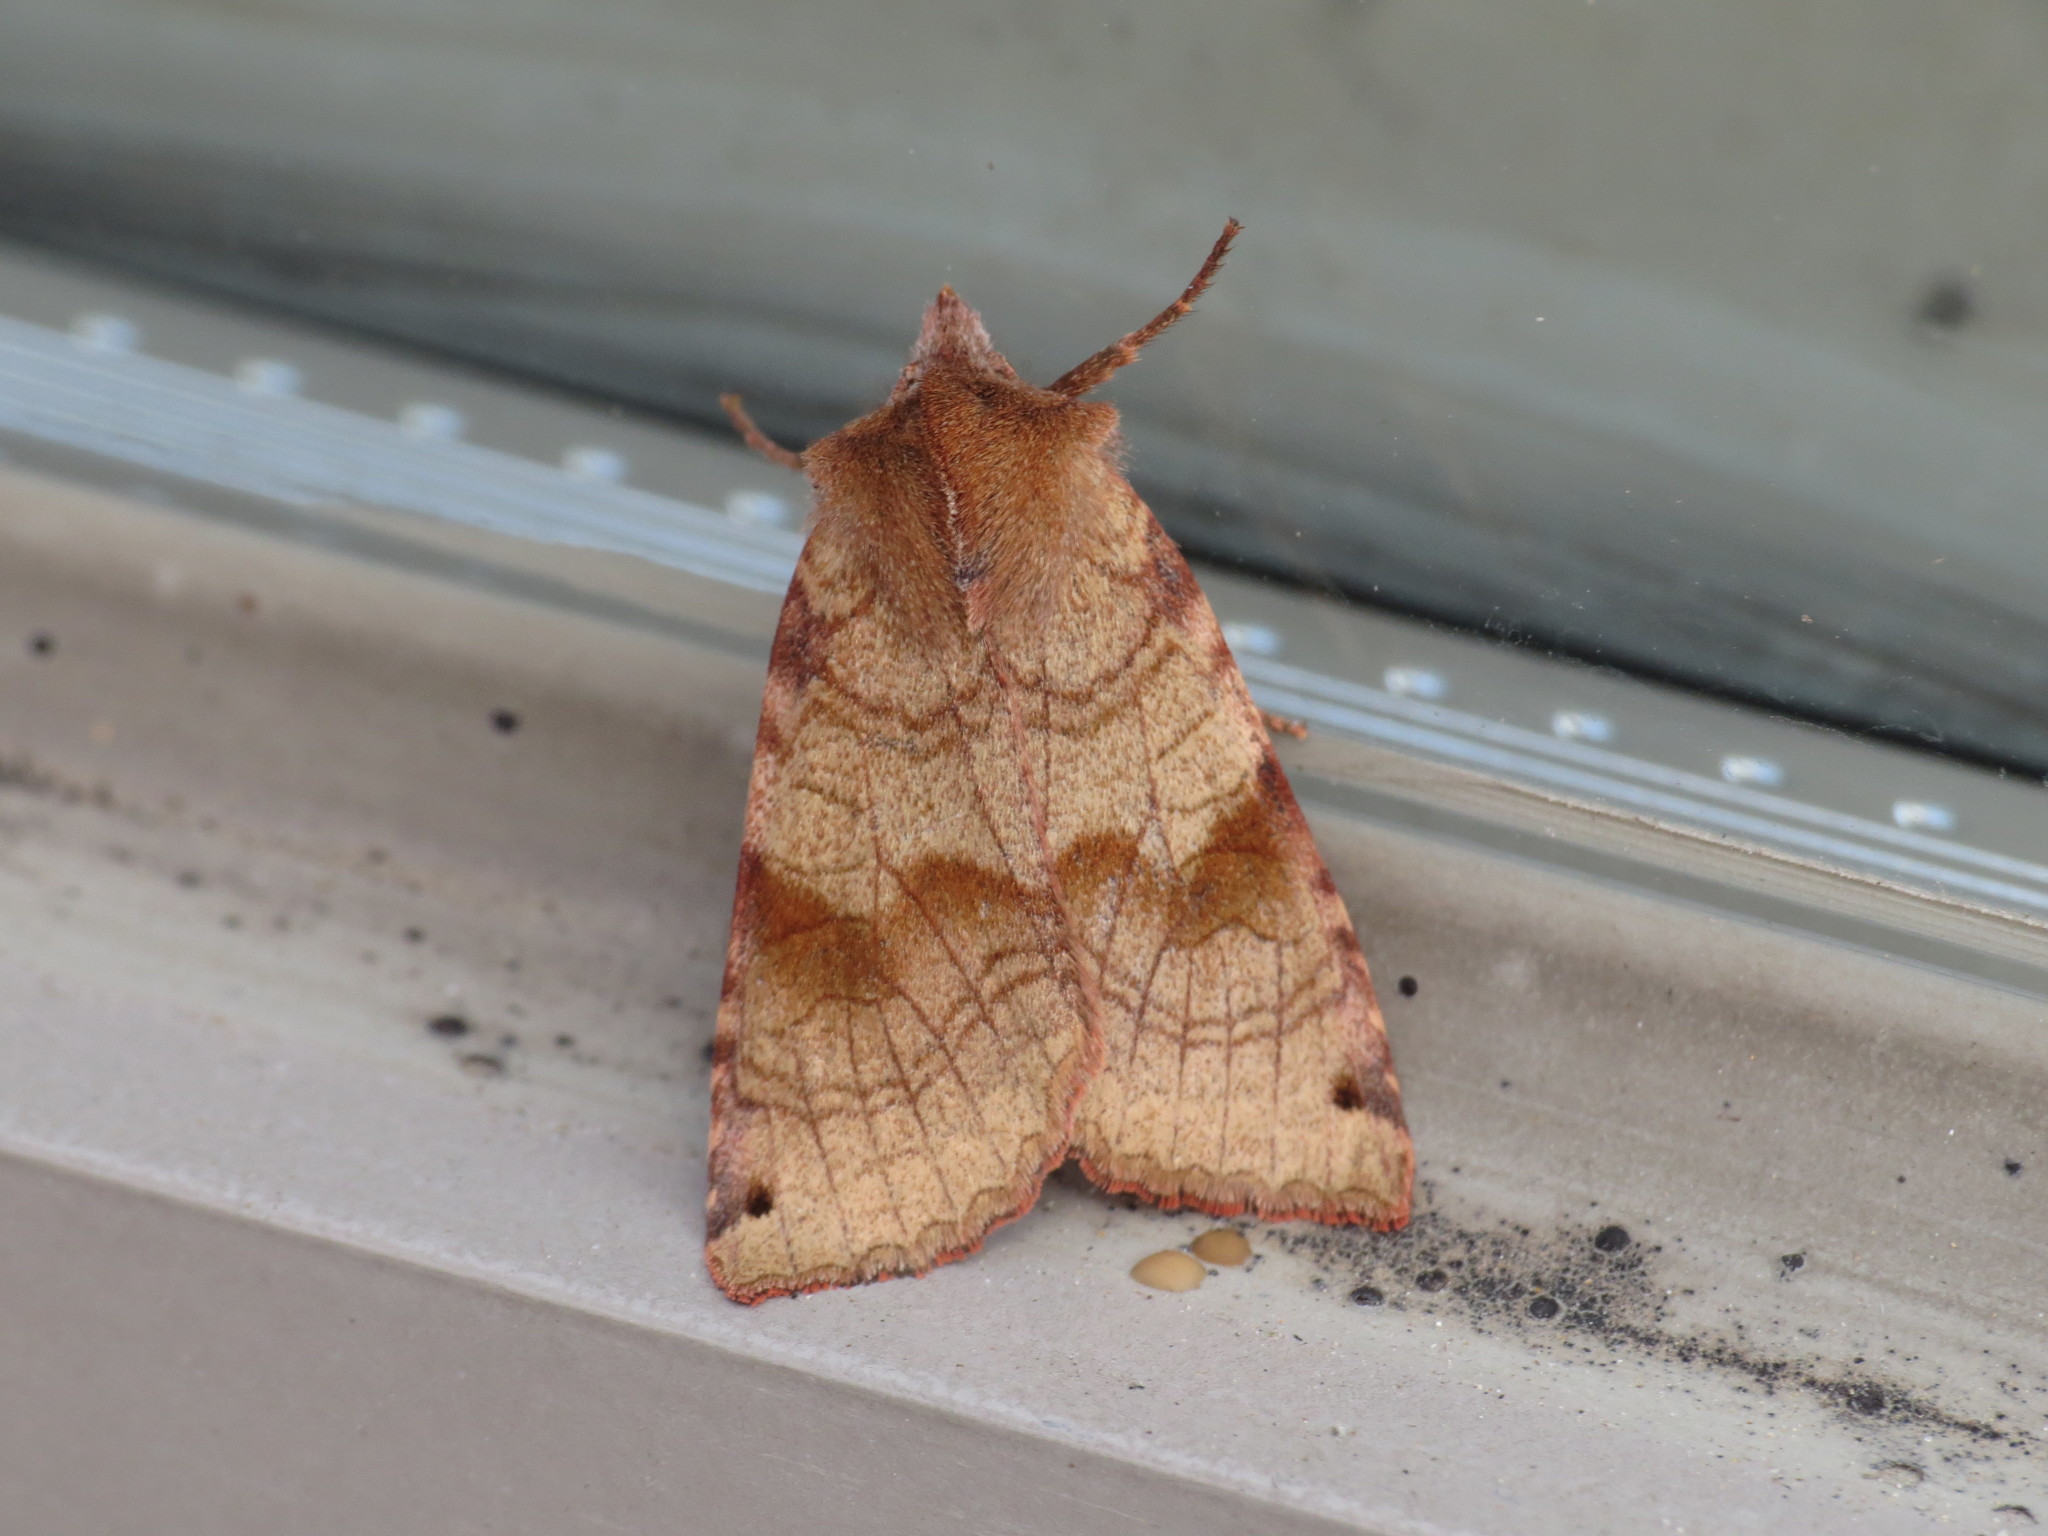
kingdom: Animalia
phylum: Arthropoda
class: Insecta
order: Lepidoptera
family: Noctuidae
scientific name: Noctuidae
